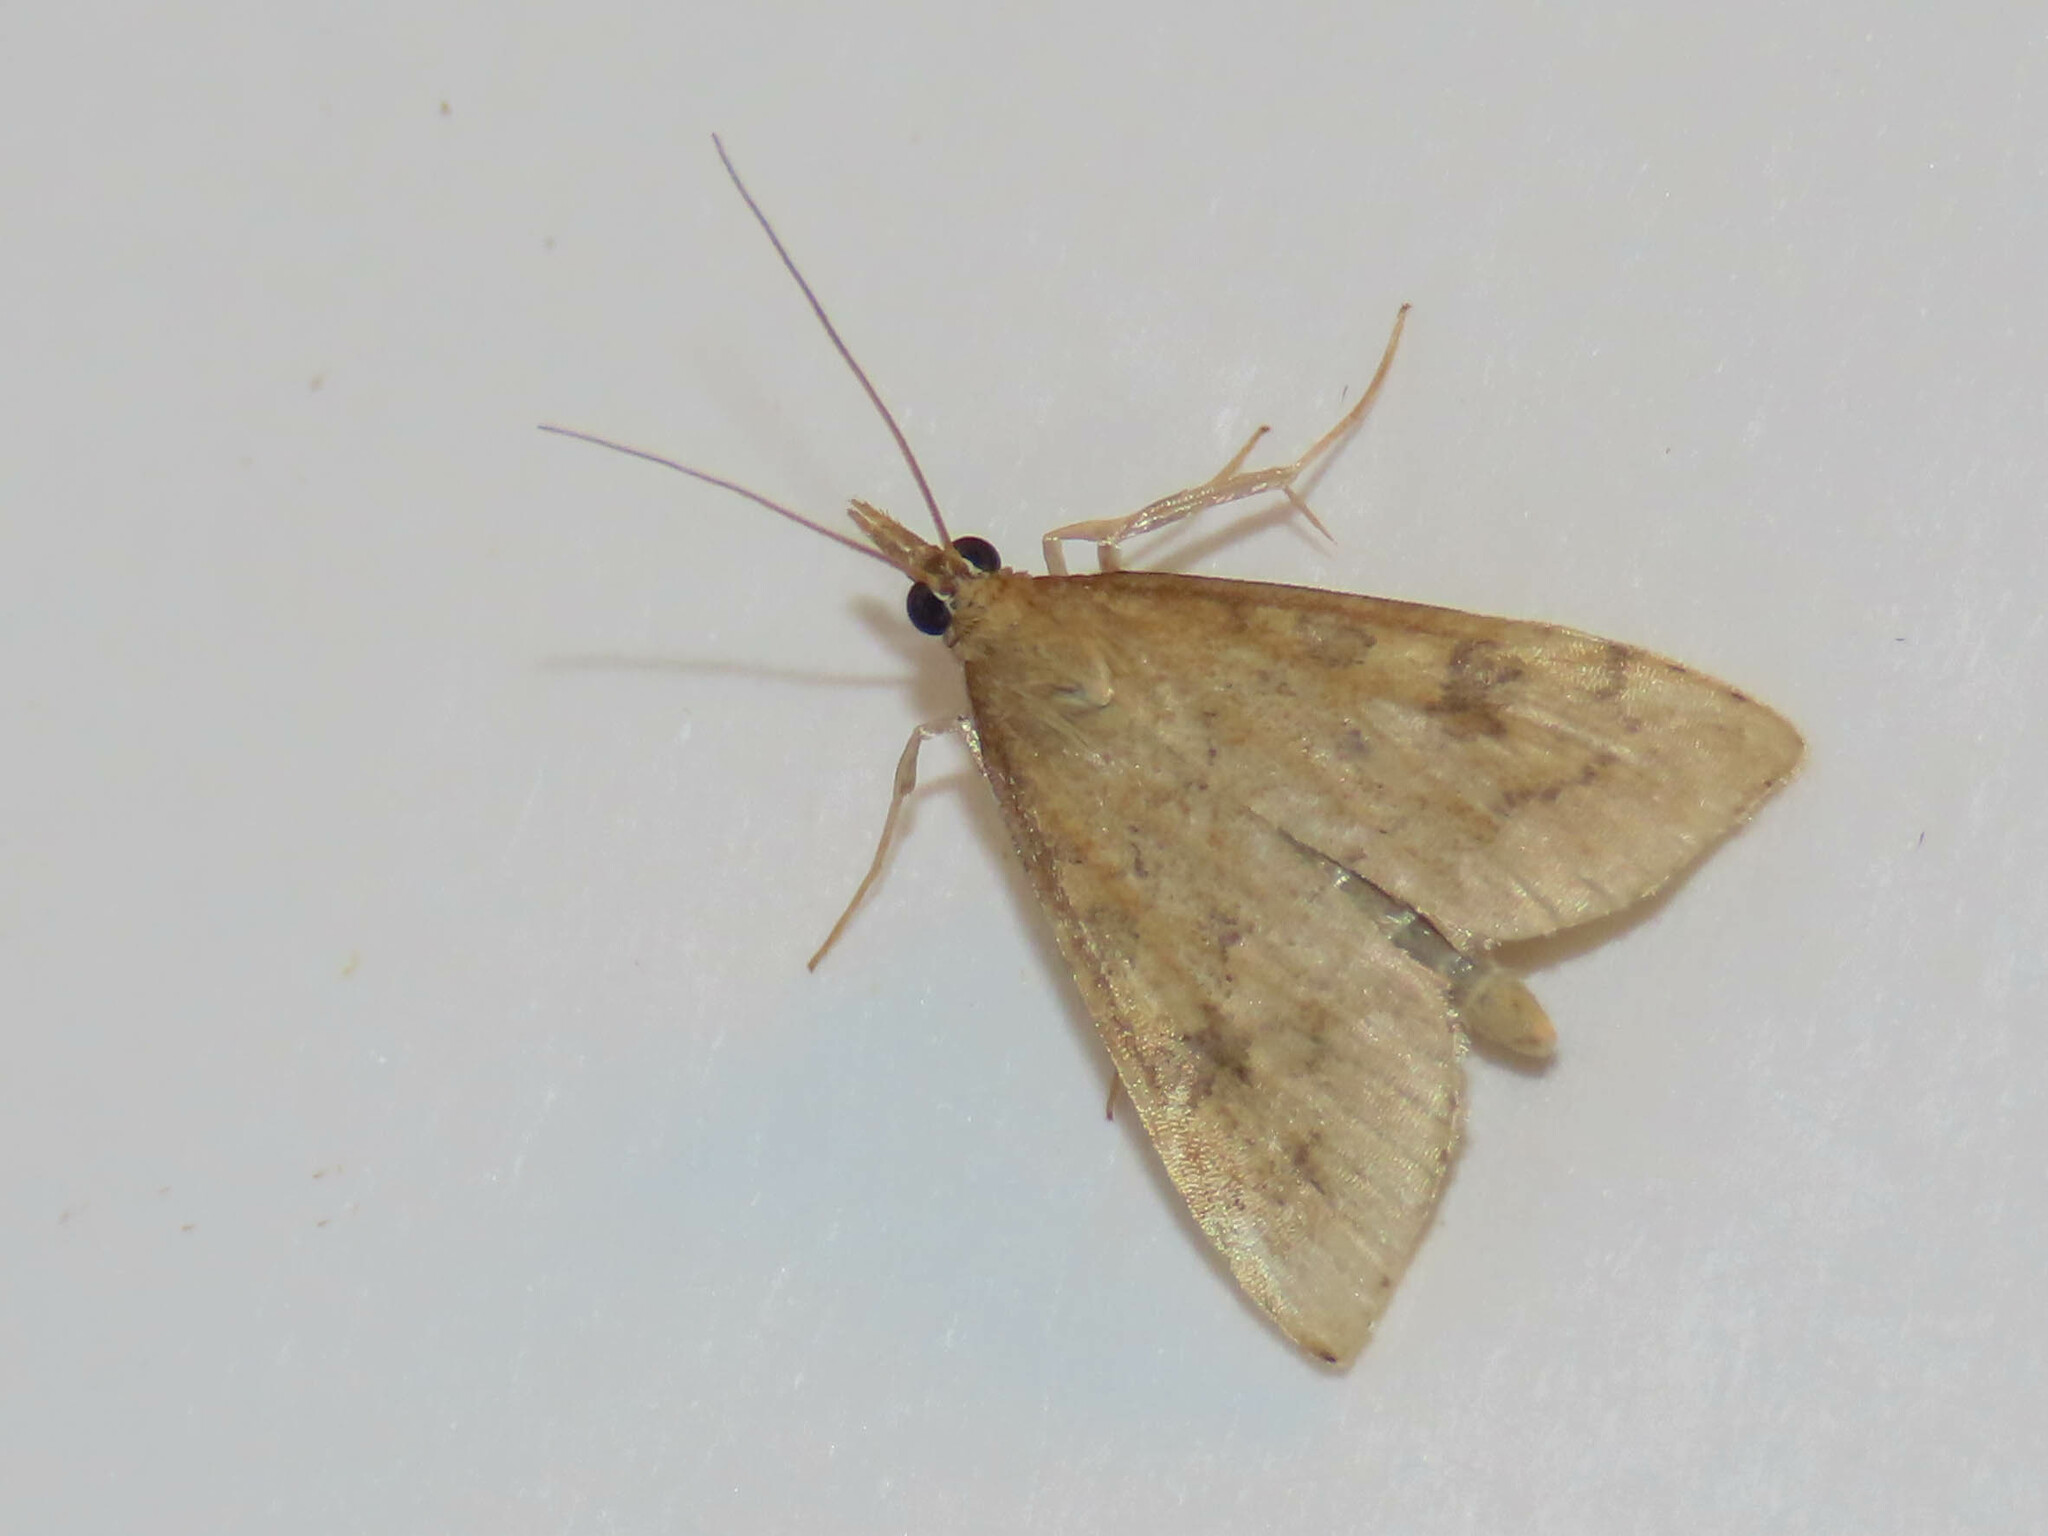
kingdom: Animalia
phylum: Arthropoda
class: Insecta
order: Lepidoptera
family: Crambidae
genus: Udea
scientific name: Udea rubigalis
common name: Celery leaftier moth
